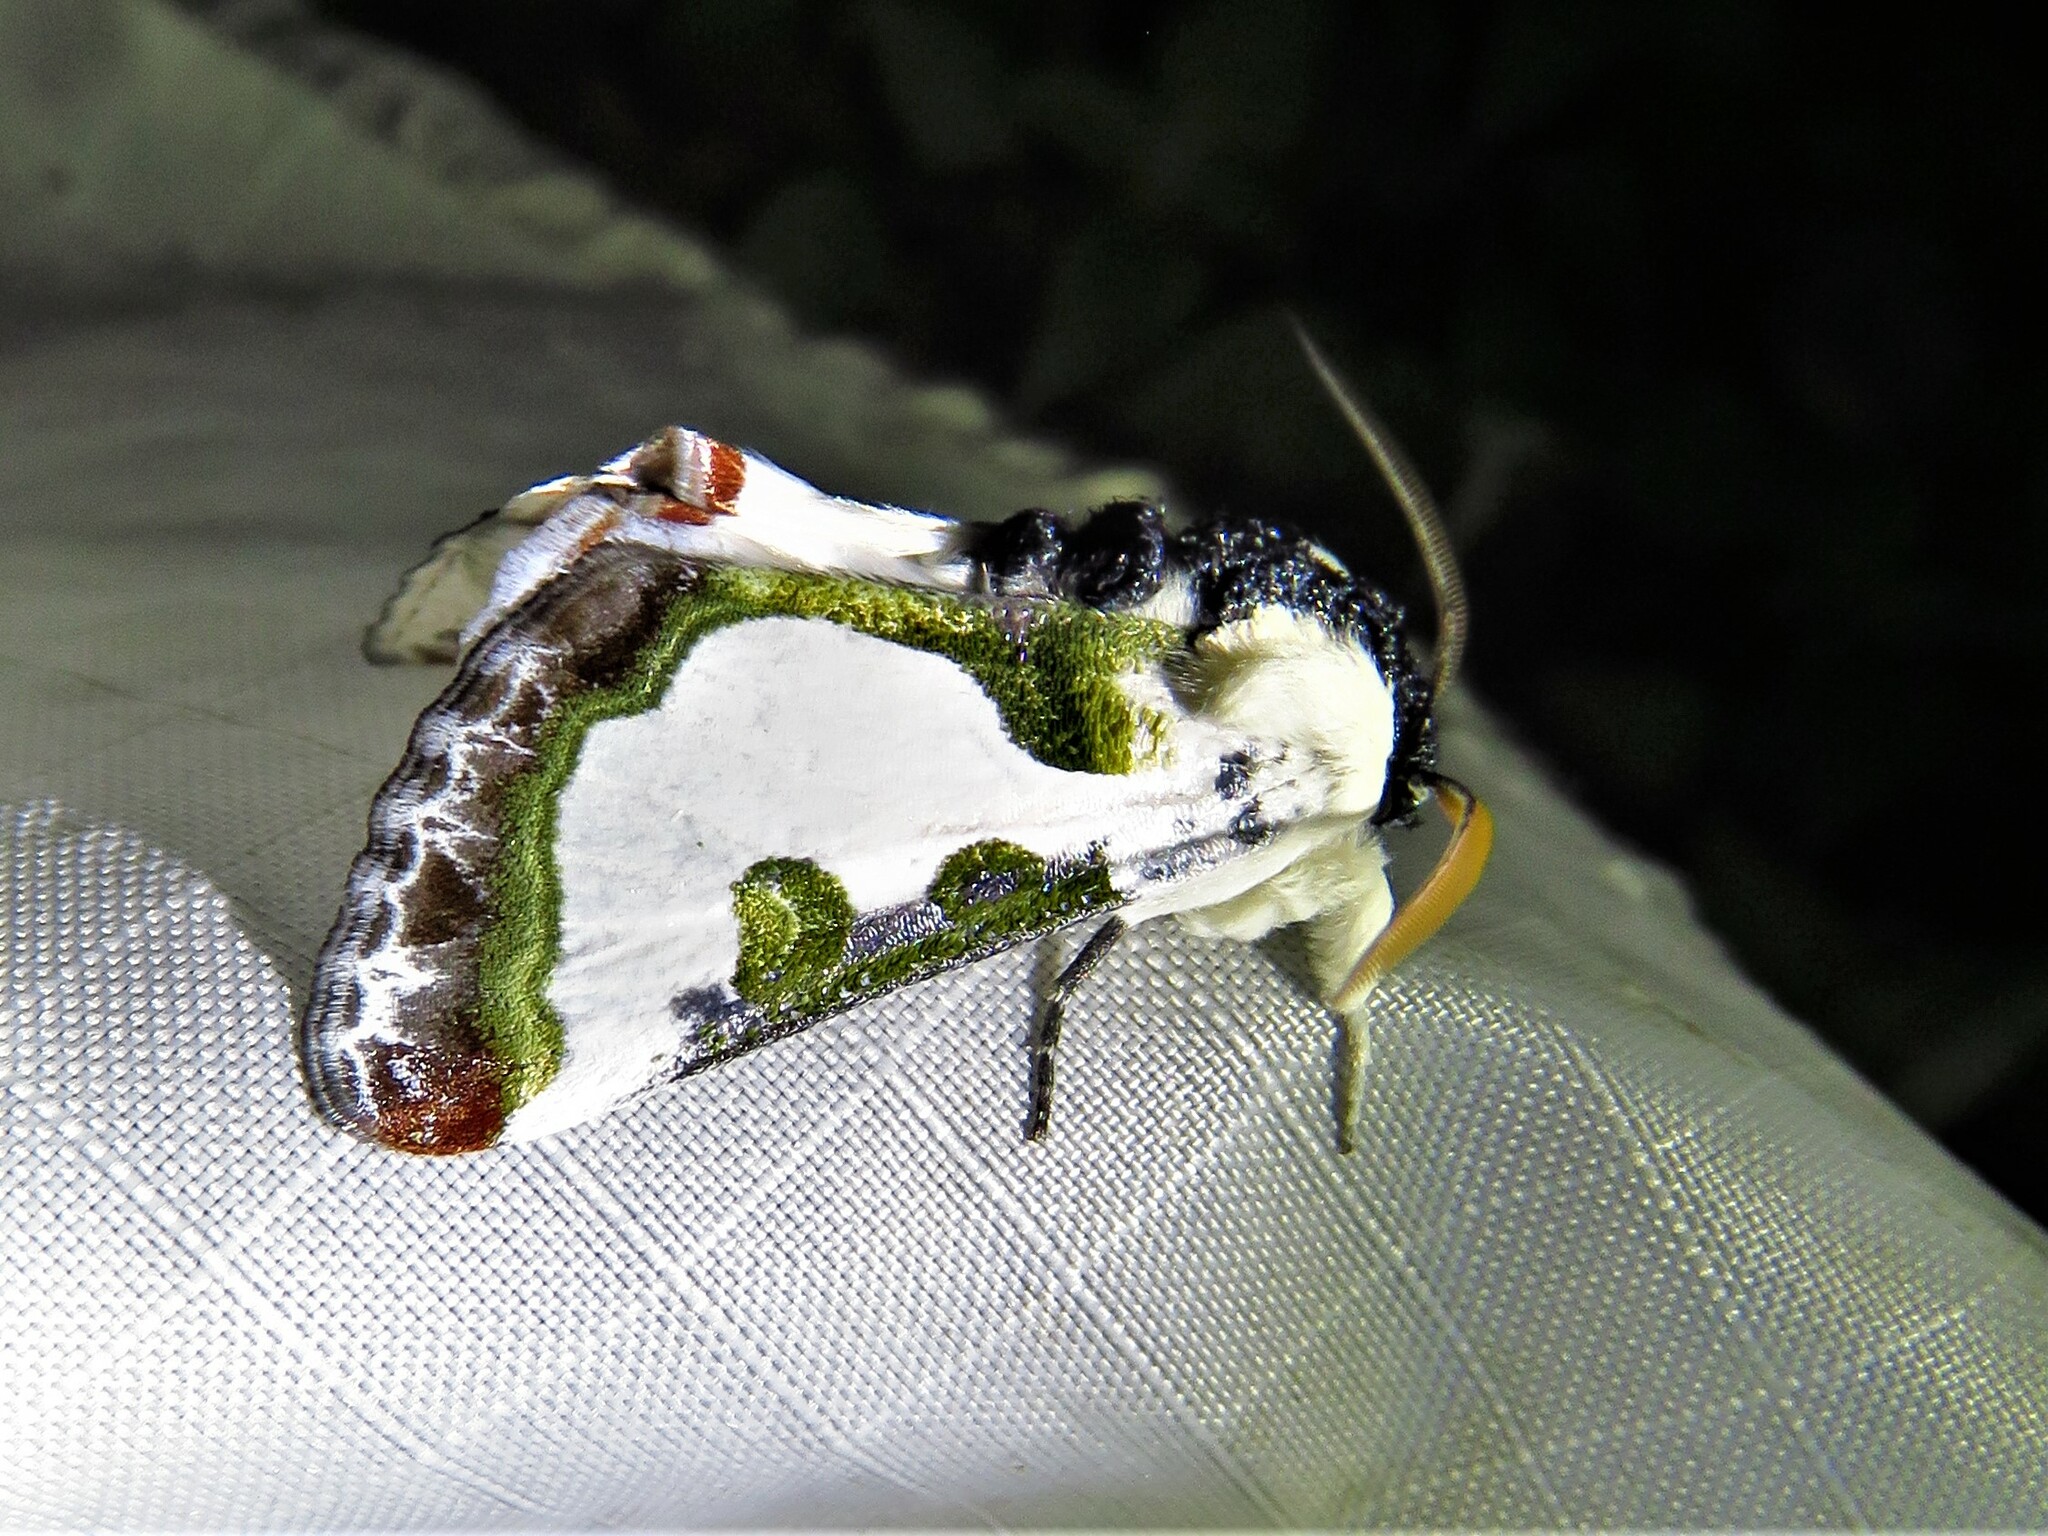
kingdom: Animalia
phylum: Arthropoda
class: Insecta
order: Lepidoptera
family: Noctuidae
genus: Xerociris
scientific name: Xerociris wilsonii
